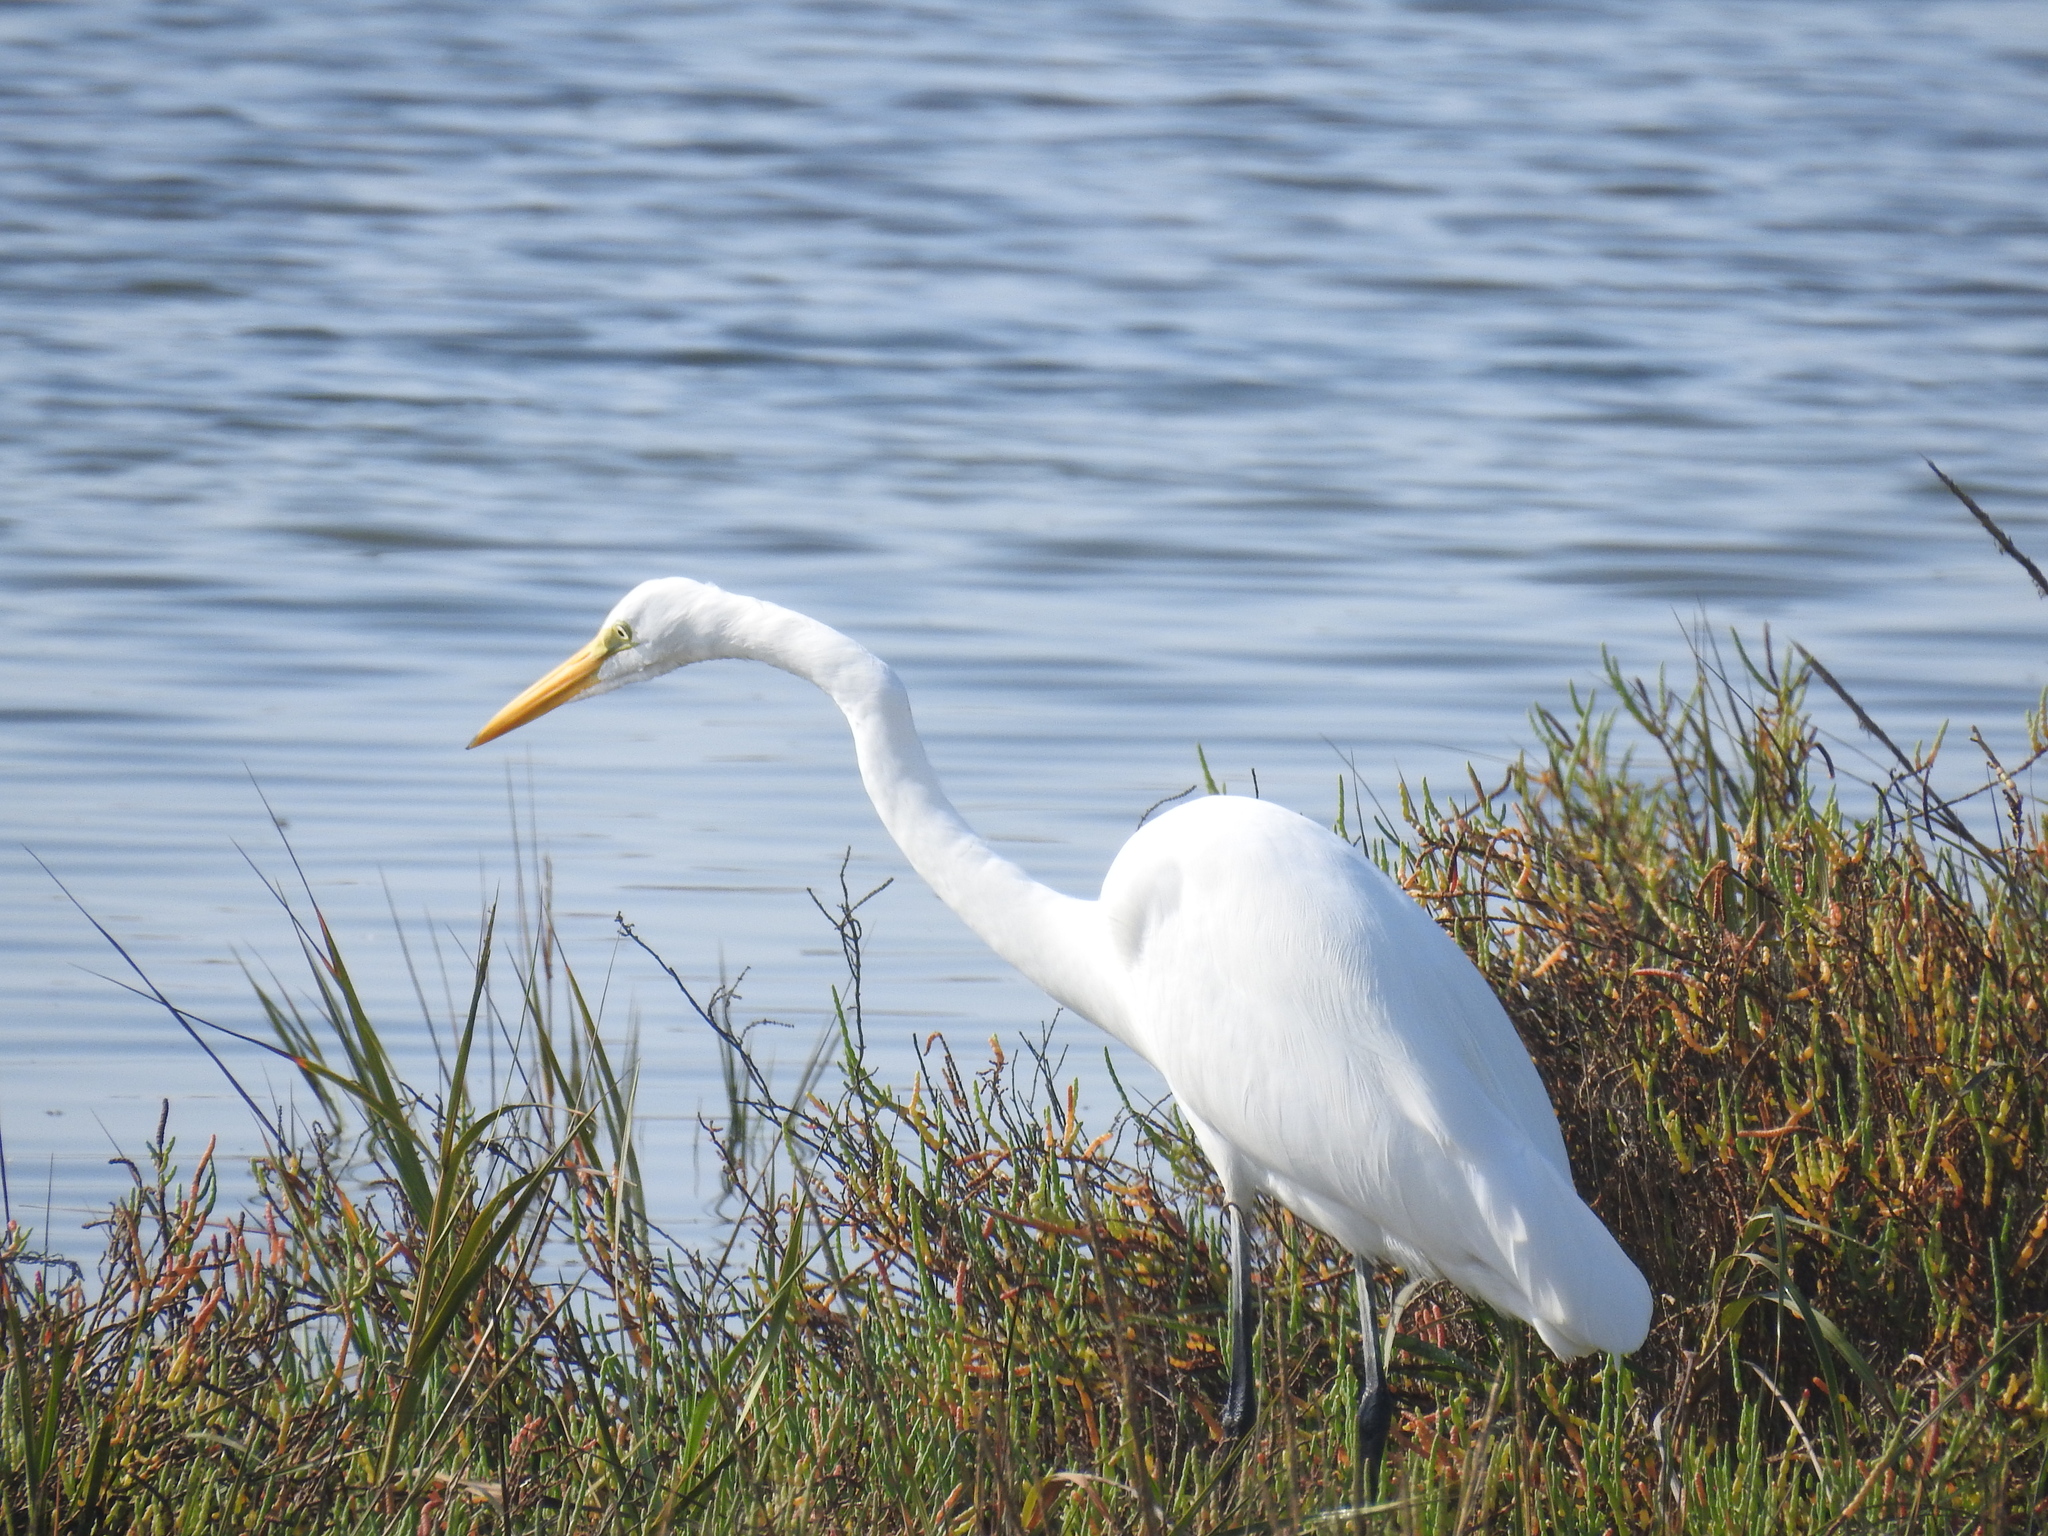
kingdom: Animalia
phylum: Chordata
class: Aves
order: Pelecaniformes
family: Ardeidae
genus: Ardea
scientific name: Ardea alba
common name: Great egret
